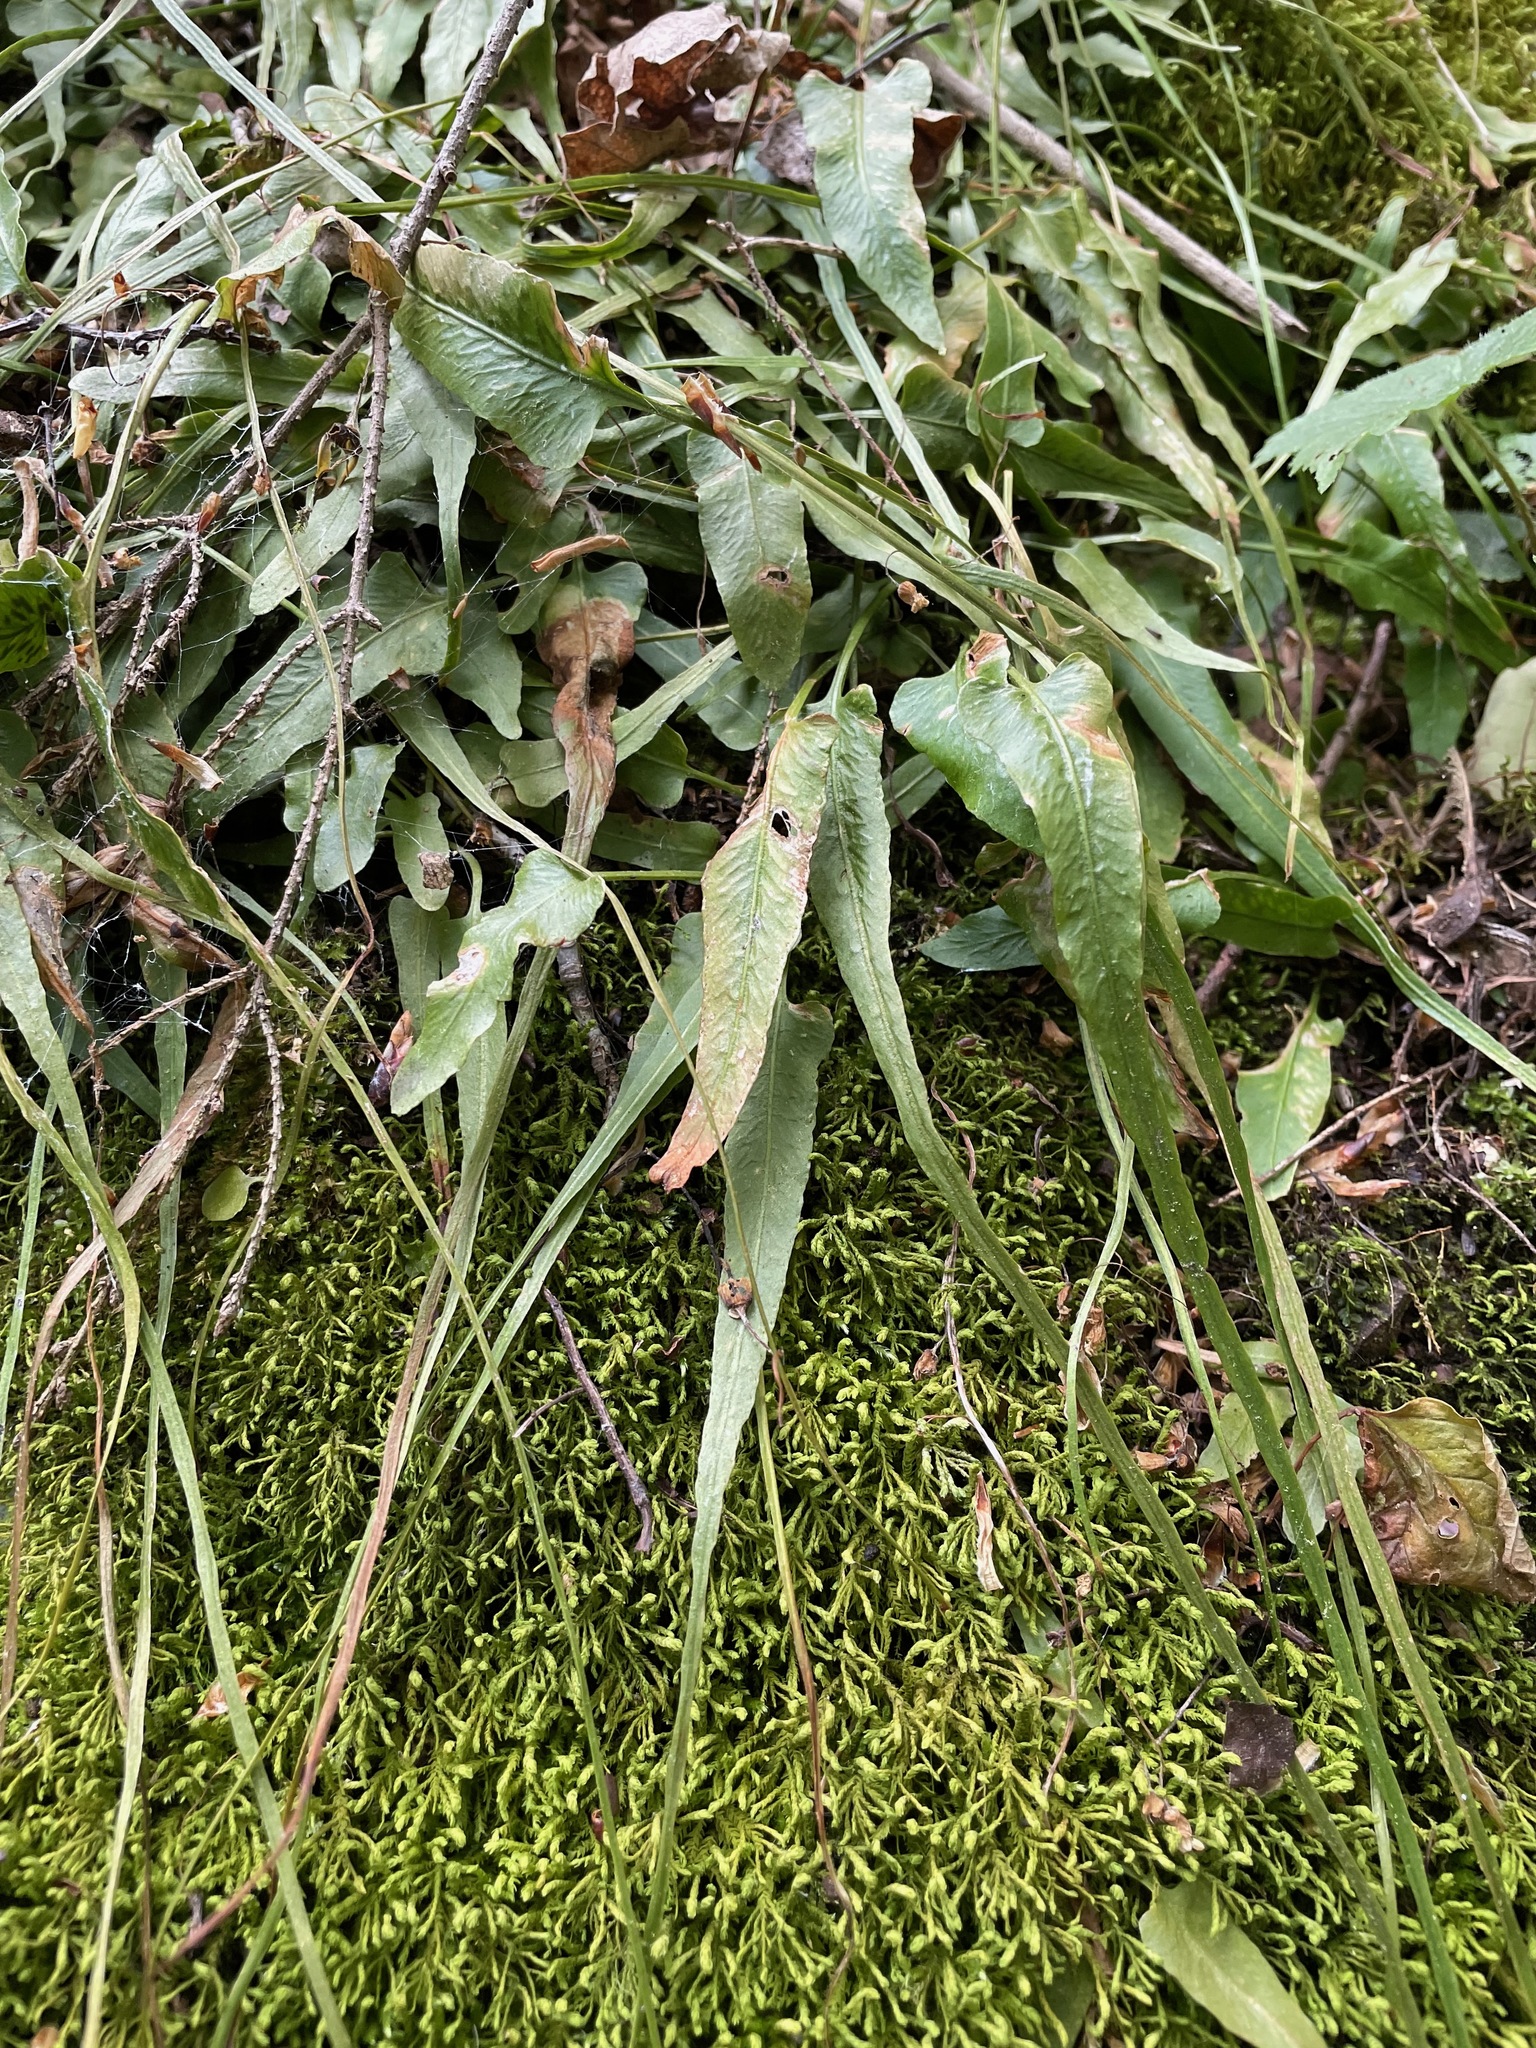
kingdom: Plantae
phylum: Tracheophyta
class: Polypodiopsida
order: Polypodiales
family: Aspleniaceae
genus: Asplenium
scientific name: Asplenium rhizophyllum
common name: Walking fern
